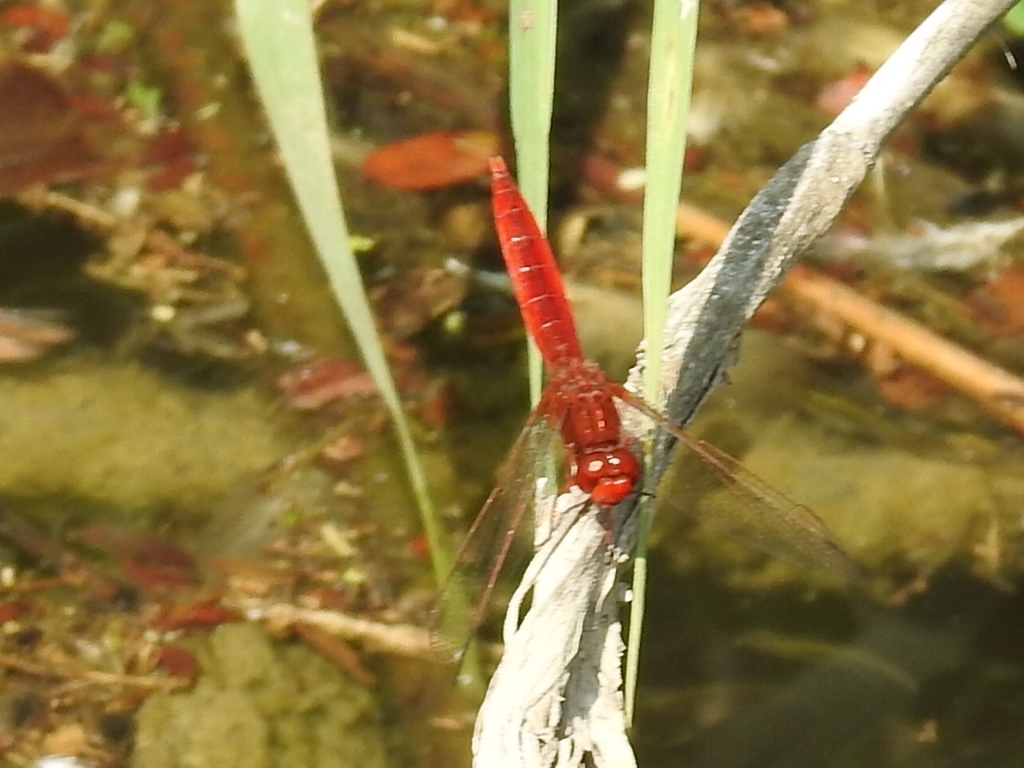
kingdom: Animalia
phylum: Arthropoda
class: Insecta
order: Odonata
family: Libellulidae
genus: Crocothemis
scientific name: Crocothemis erythraea
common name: Scarlet dragonfly
